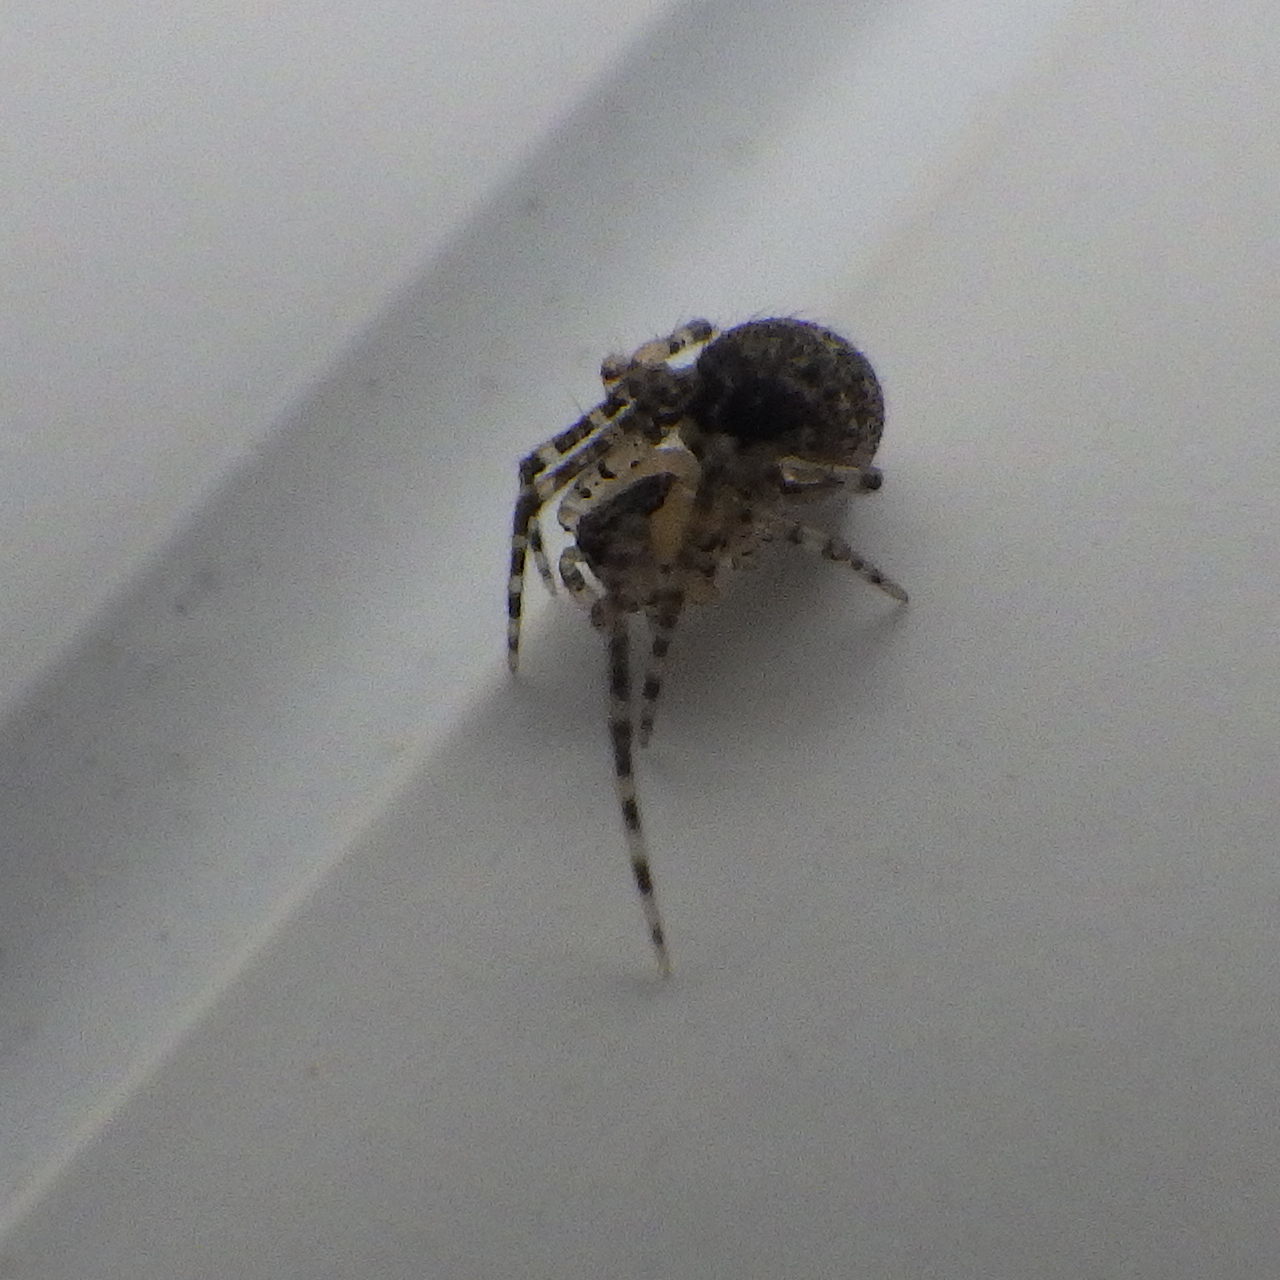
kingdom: Animalia
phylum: Arthropoda
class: Arachnida
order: Araneae
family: Theridiidae
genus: Platnickina
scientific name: Platnickina tincta
